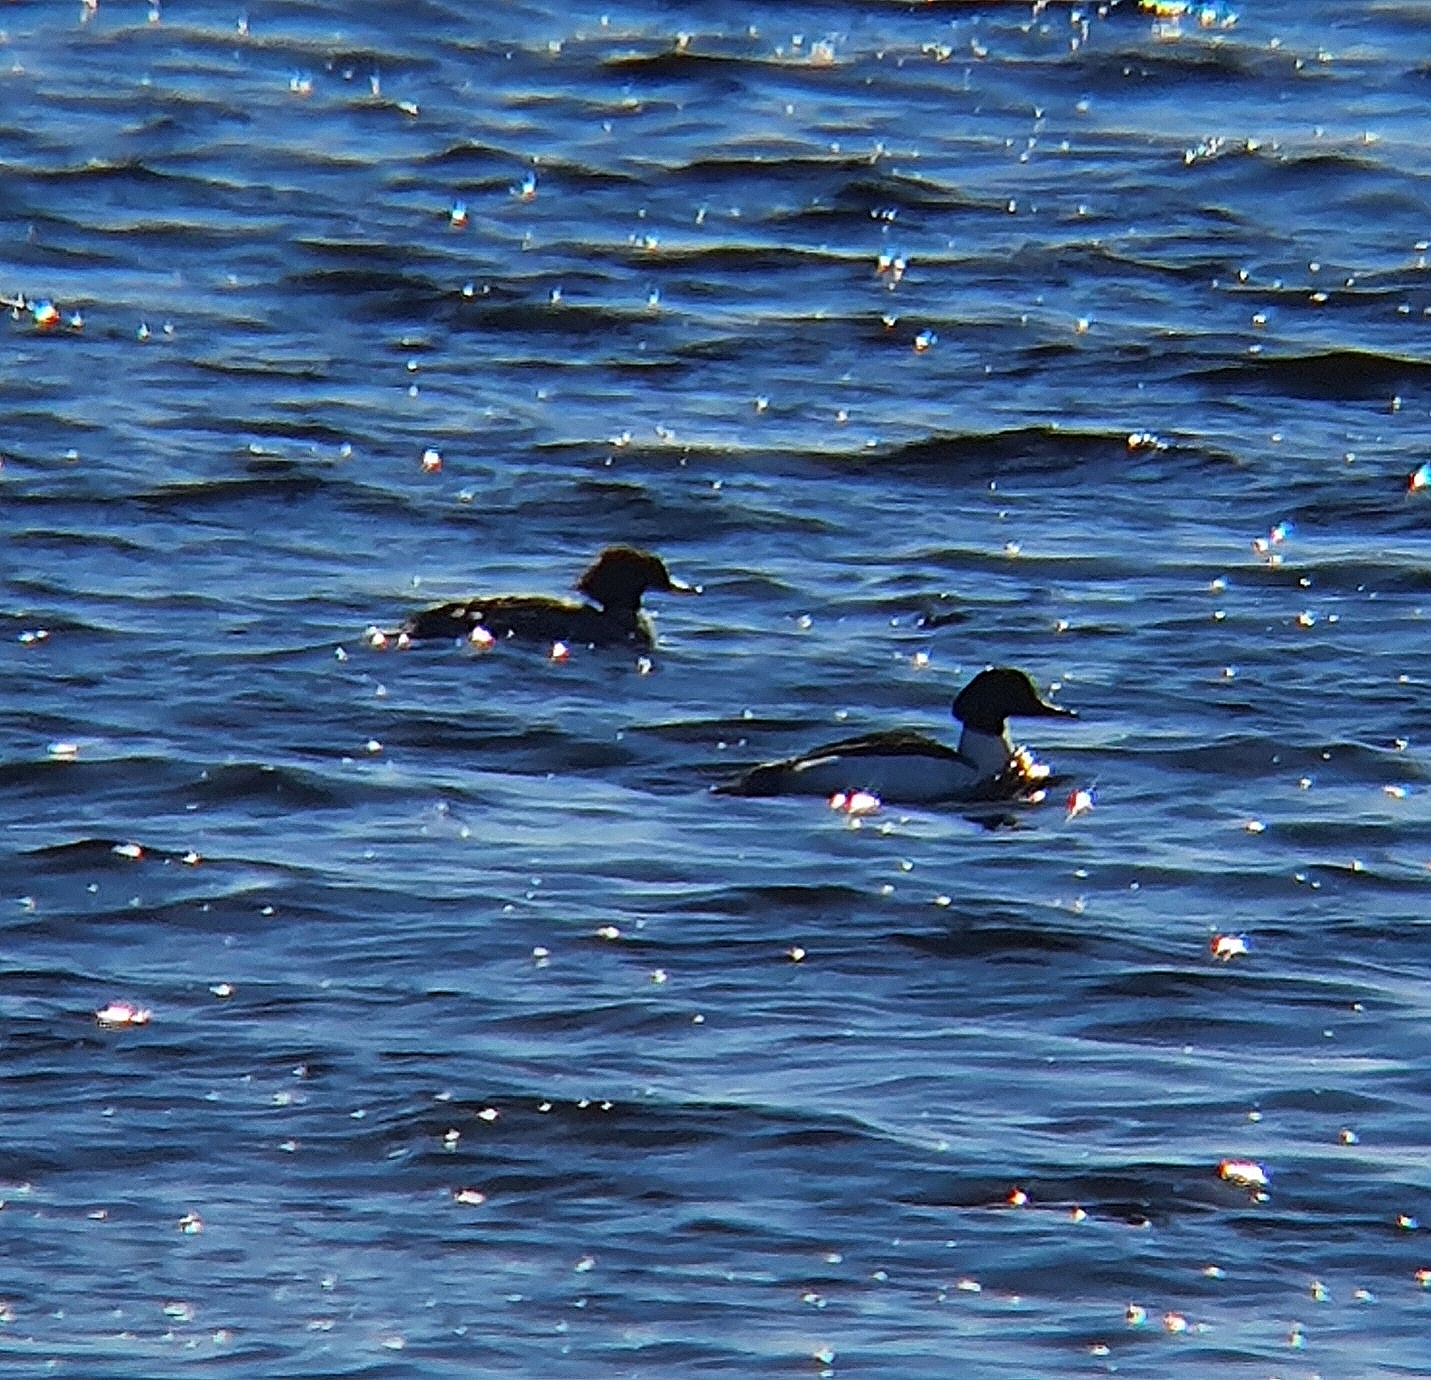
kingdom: Animalia
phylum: Chordata
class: Aves
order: Anseriformes
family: Anatidae
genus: Mergus
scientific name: Mergus merganser
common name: Common merganser
